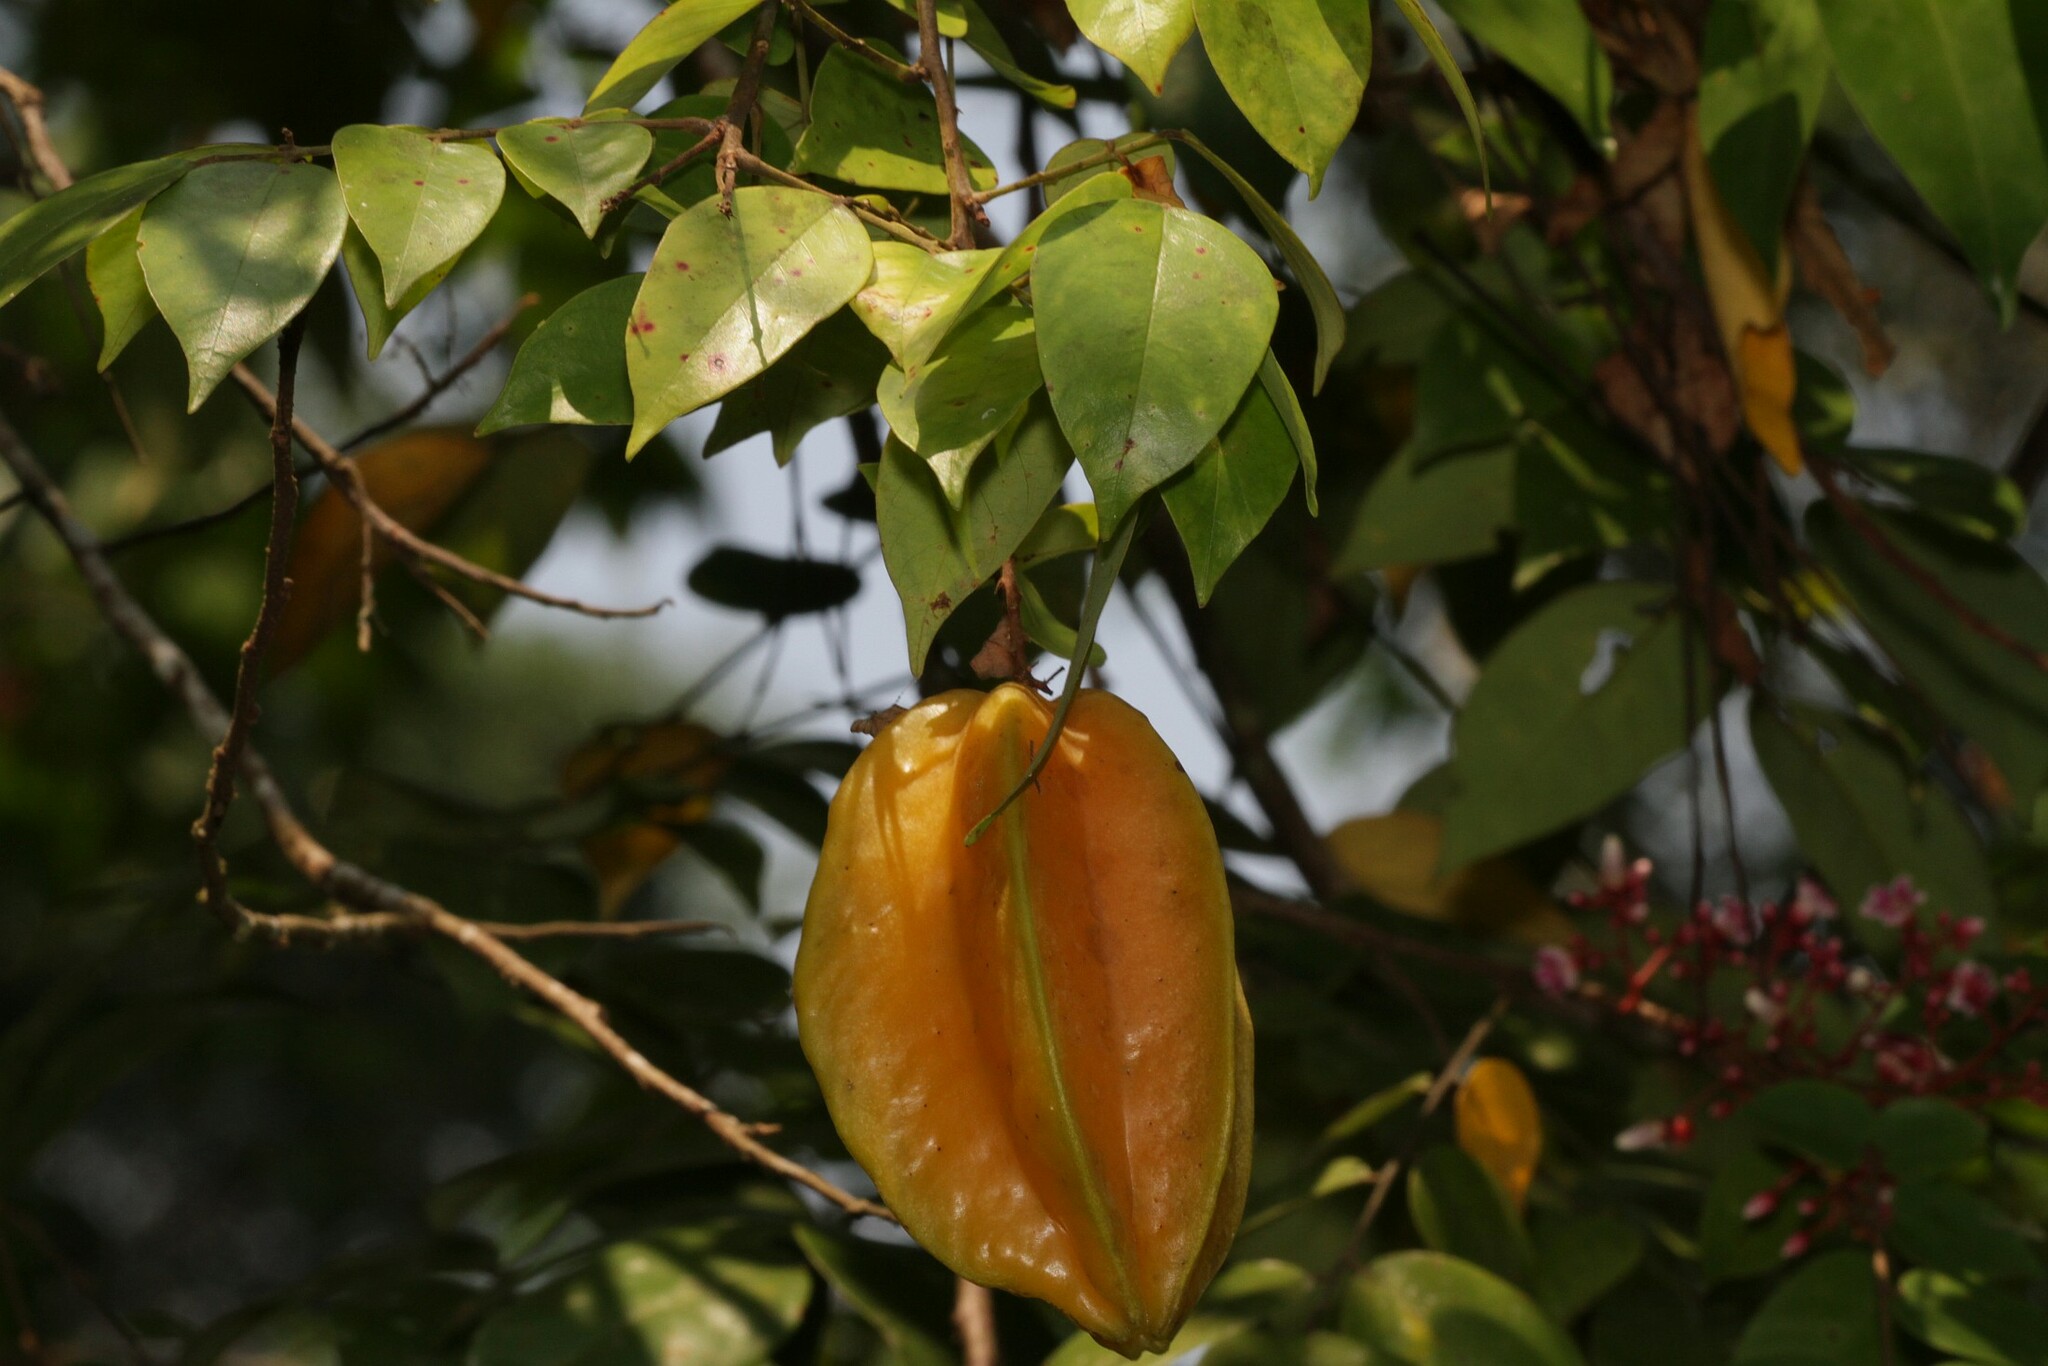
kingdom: Plantae
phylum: Tracheophyta
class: Magnoliopsida
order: Oxalidales
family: Oxalidaceae
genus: Averrhoa
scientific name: Averrhoa carambola
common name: Blimbing
